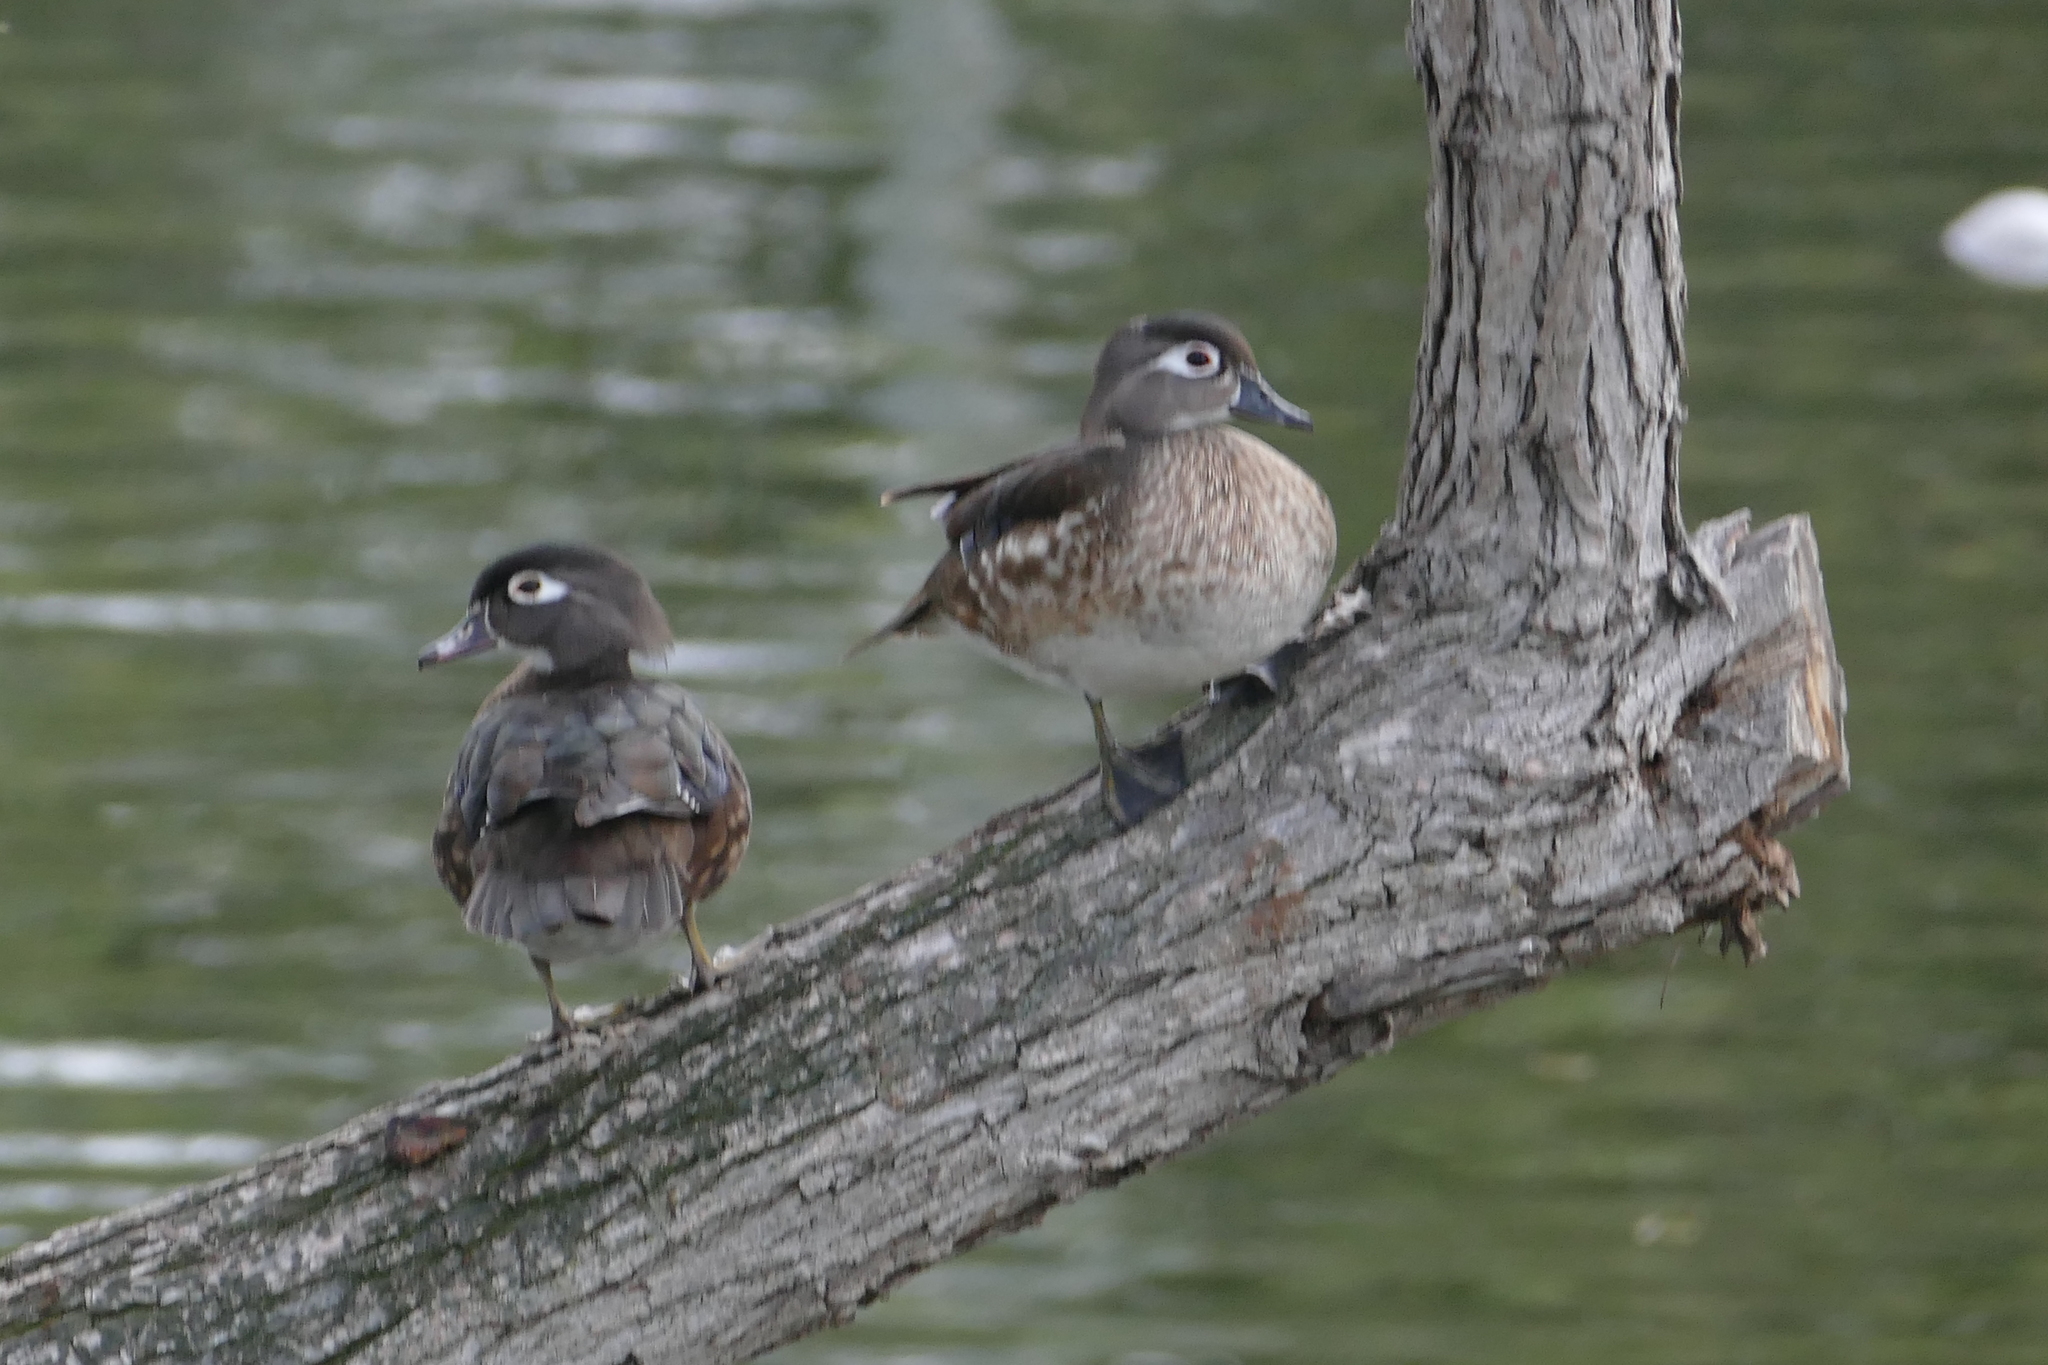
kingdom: Animalia
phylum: Chordata
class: Aves
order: Anseriformes
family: Anatidae
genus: Aix
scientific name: Aix sponsa
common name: Wood duck
